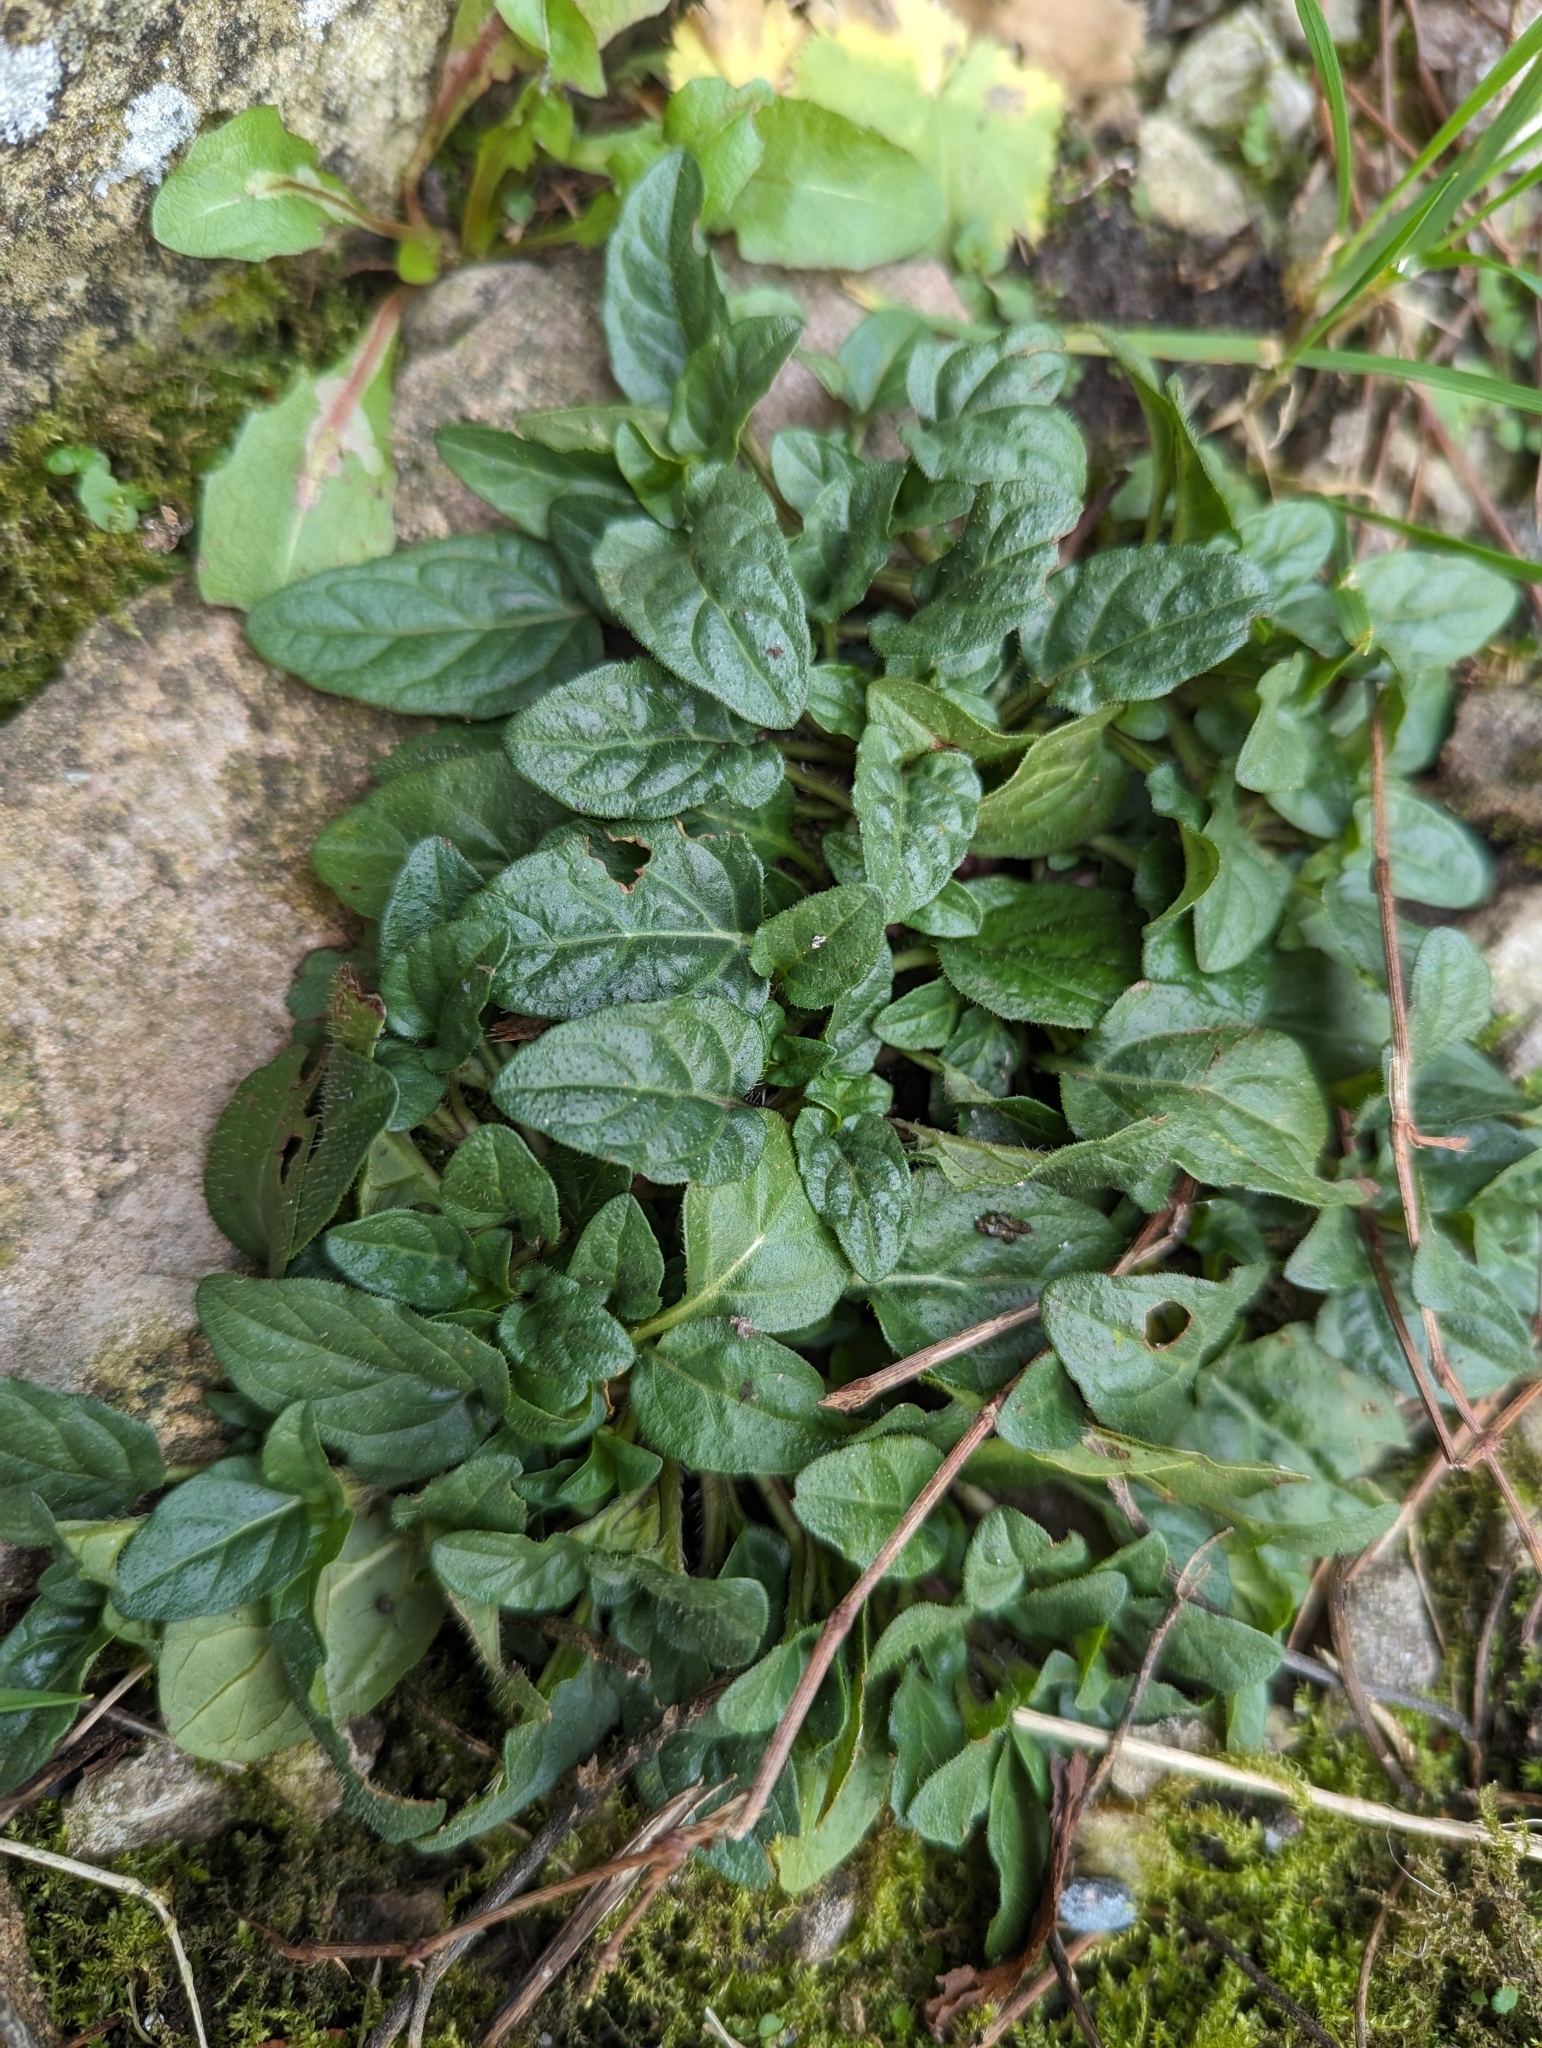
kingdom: Plantae
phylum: Tracheophyta
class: Magnoliopsida
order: Lamiales
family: Lamiaceae
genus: Prunella
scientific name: Prunella vulgaris
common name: Heal-all
